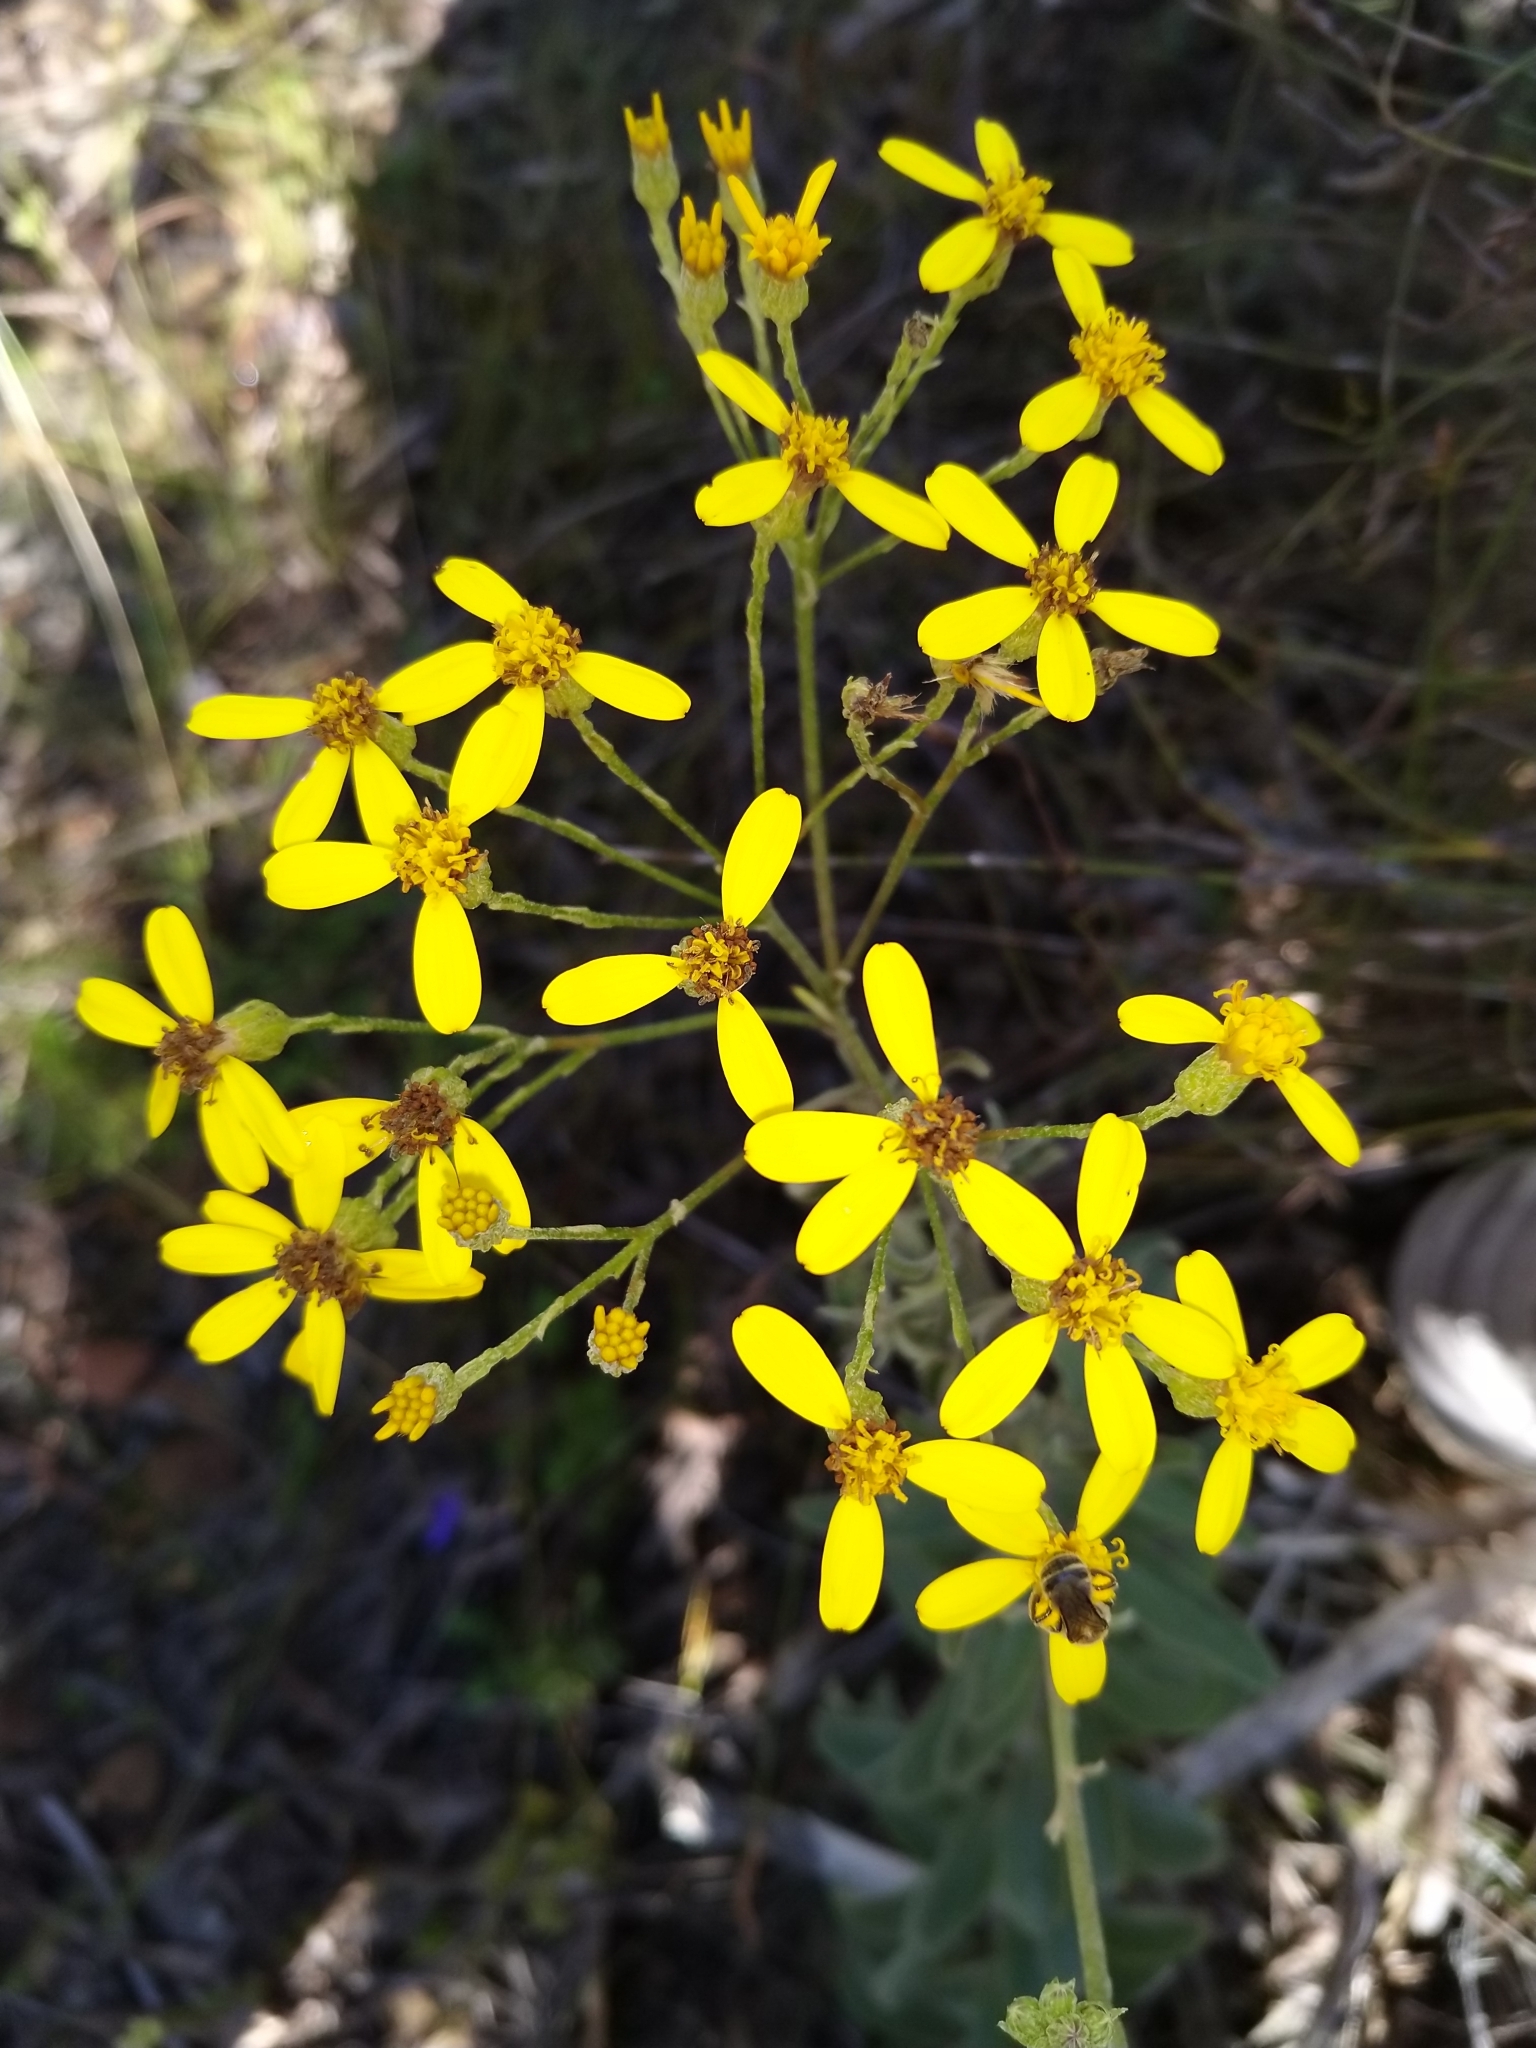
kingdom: Plantae
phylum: Tracheophyta
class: Magnoliopsida
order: Asterales
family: Asteraceae
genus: Senecio
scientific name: Senecio crenatus
